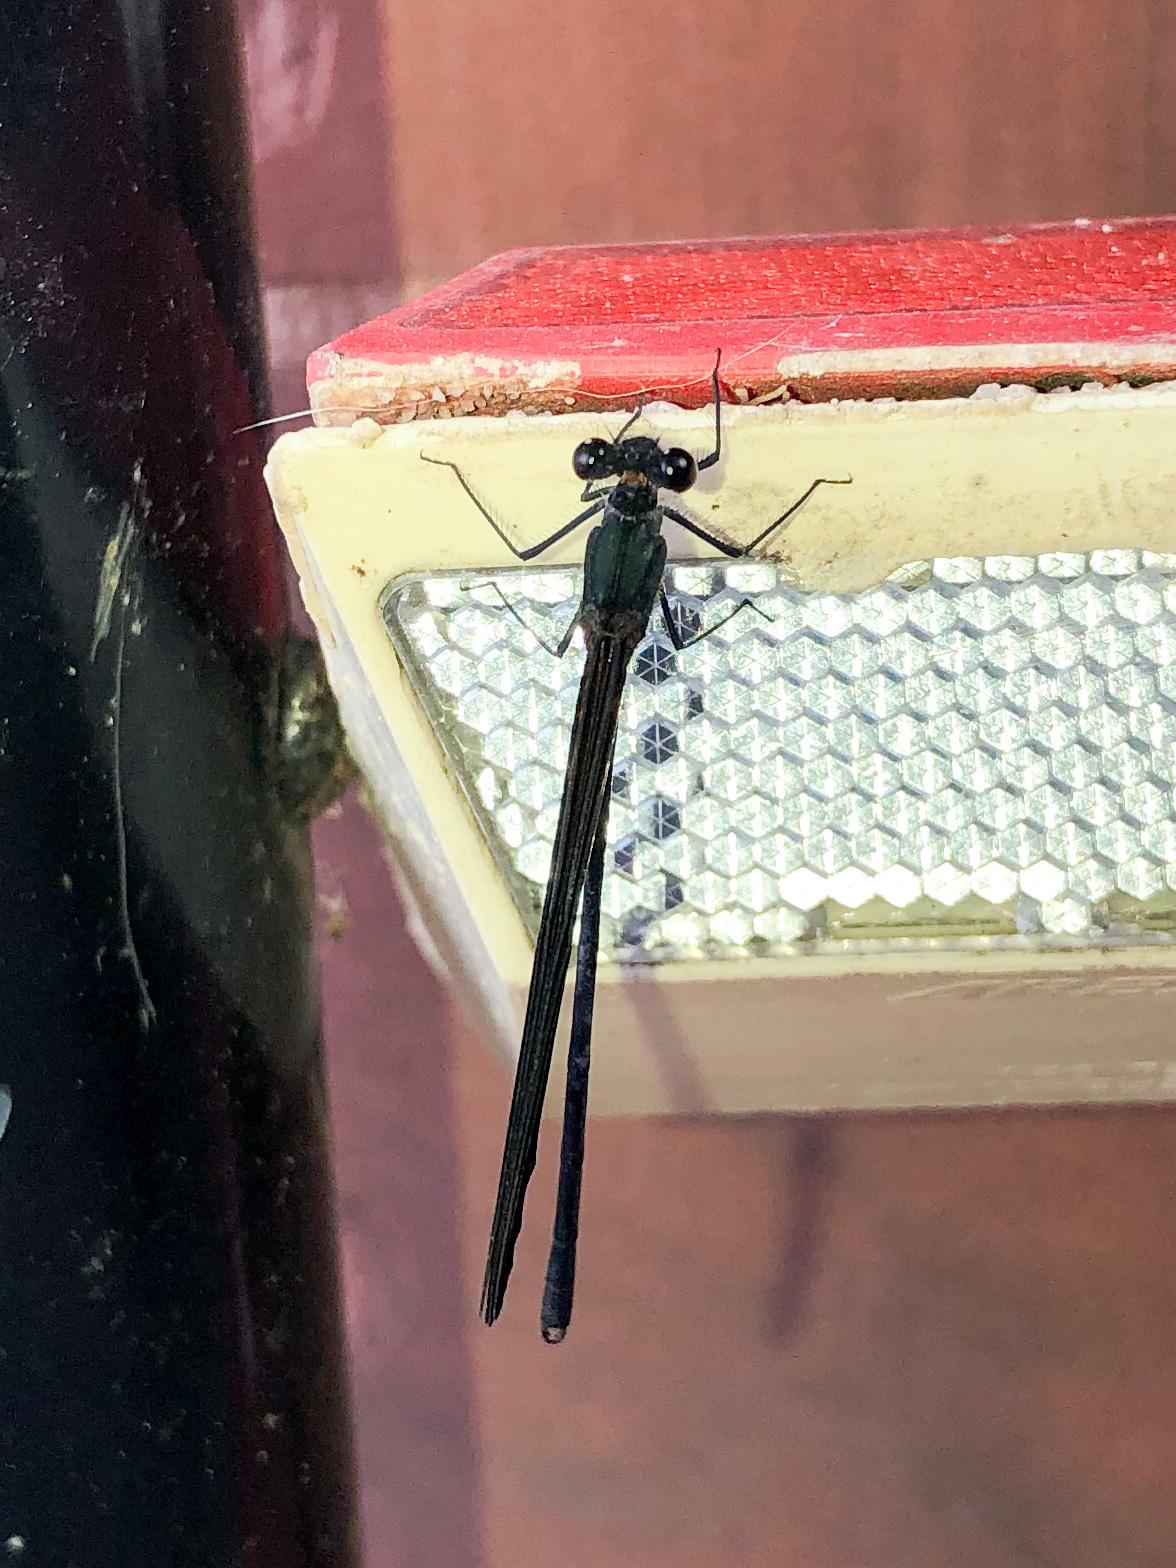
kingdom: Animalia
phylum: Arthropoda
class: Insecta
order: Odonata
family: Calopterygidae
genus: Hetaerina
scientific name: Hetaerina titia
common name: Smoky rubyspot
